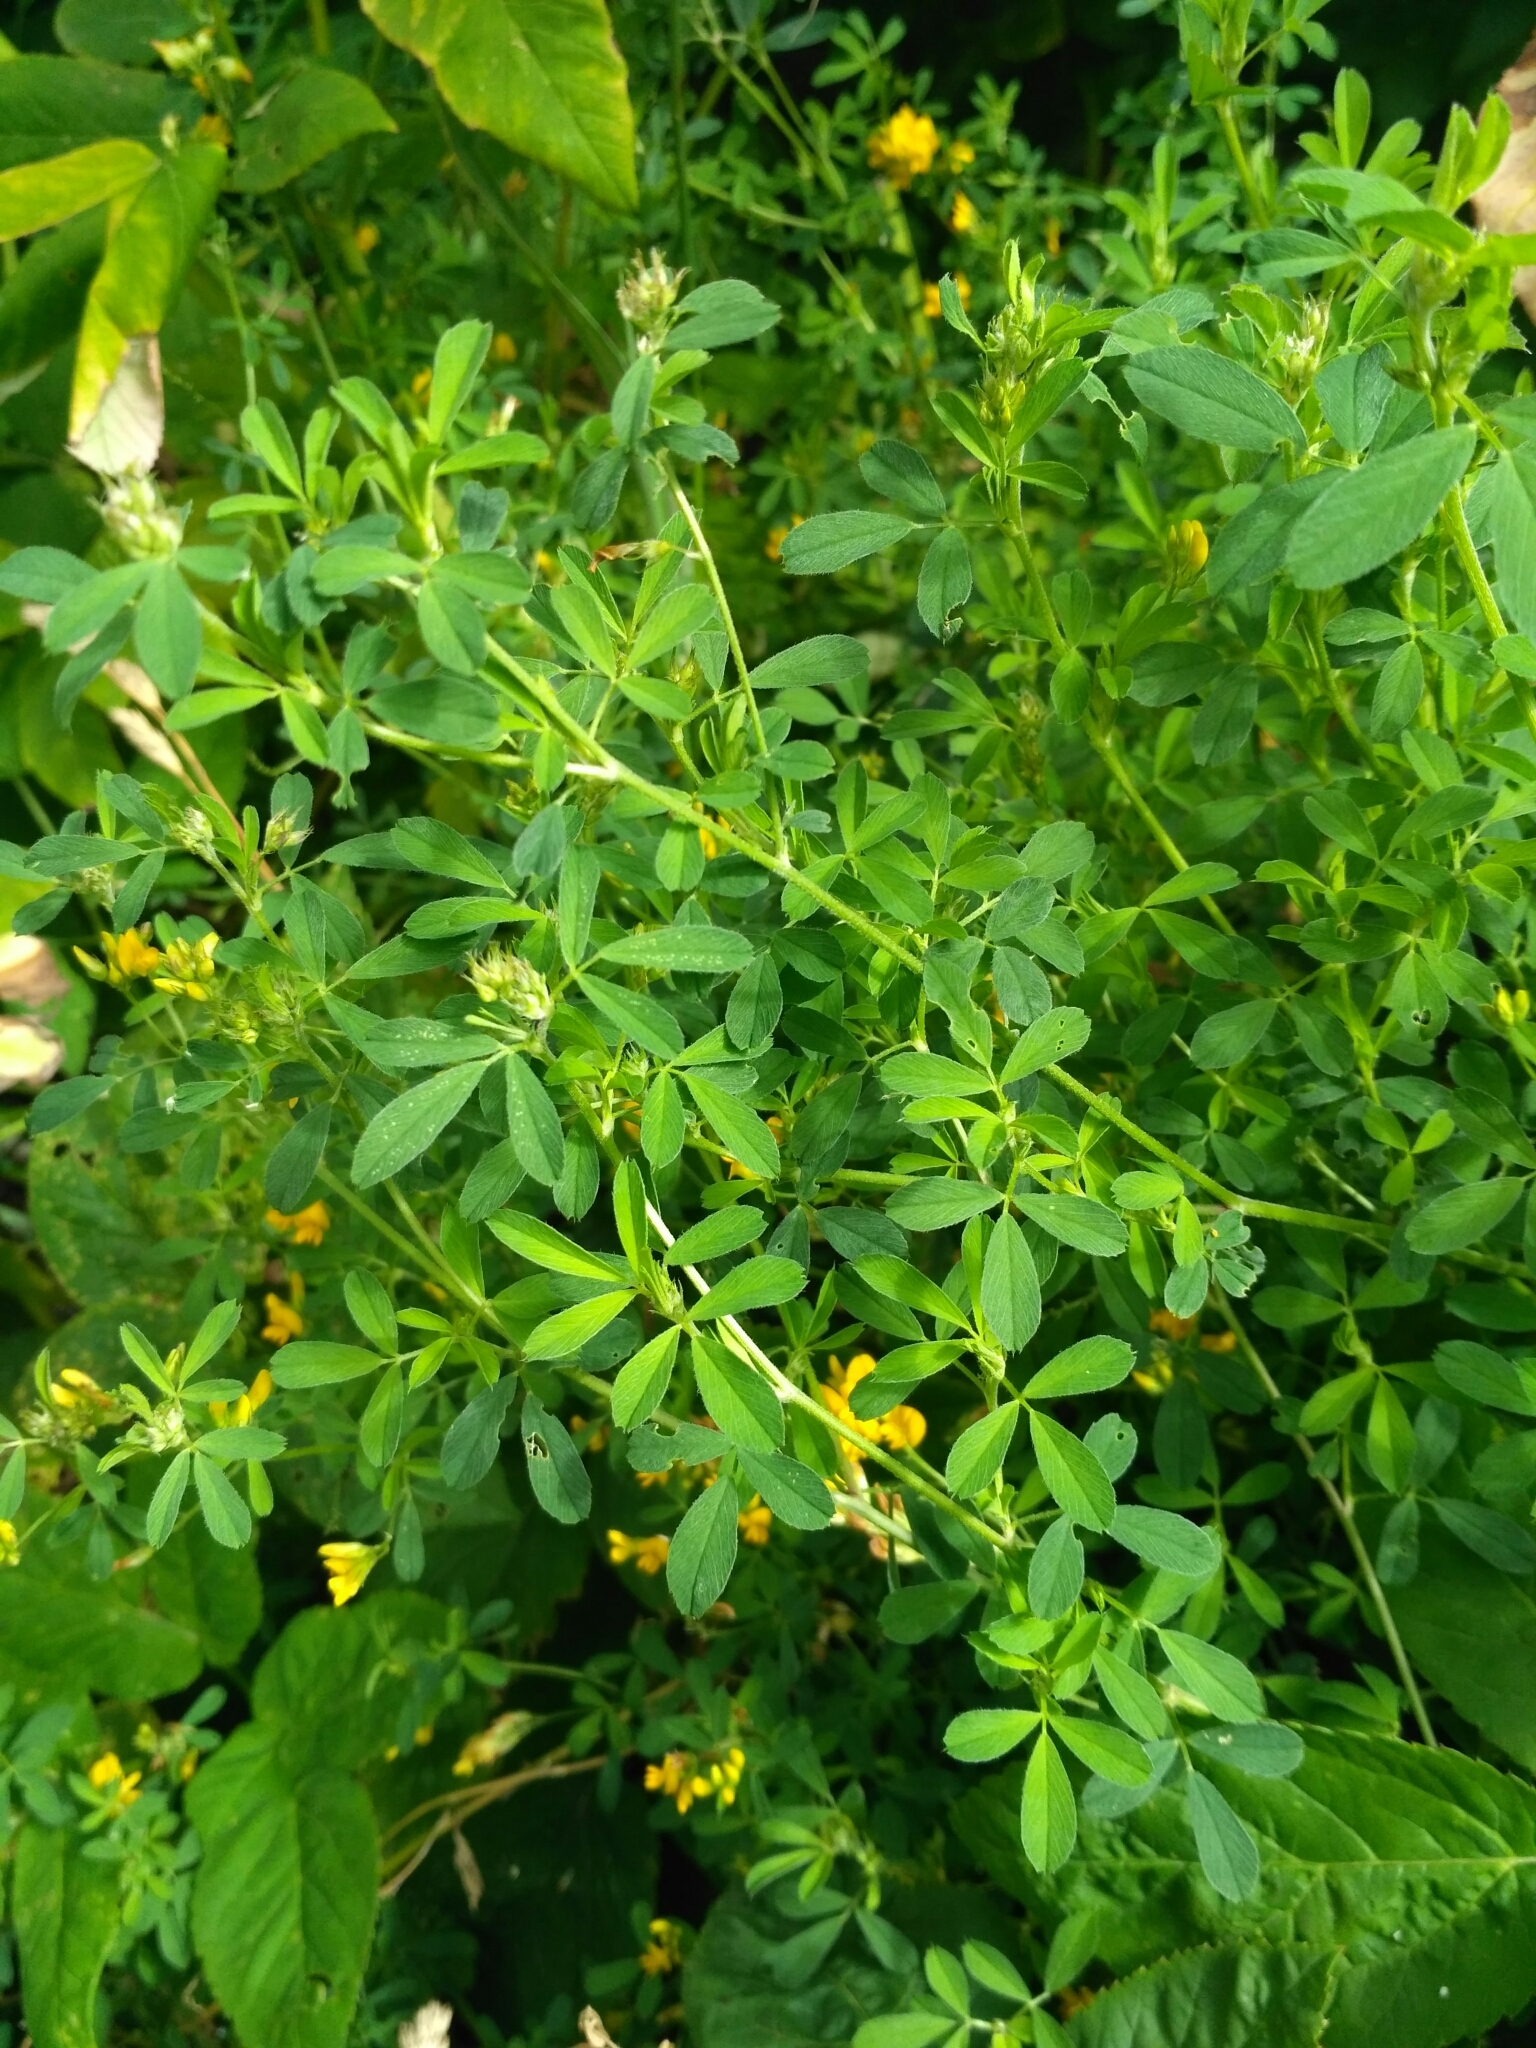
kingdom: Plantae
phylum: Tracheophyta
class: Magnoliopsida
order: Fabales
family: Fabaceae
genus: Medicago
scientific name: Medicago falcata
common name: Sickle medick
